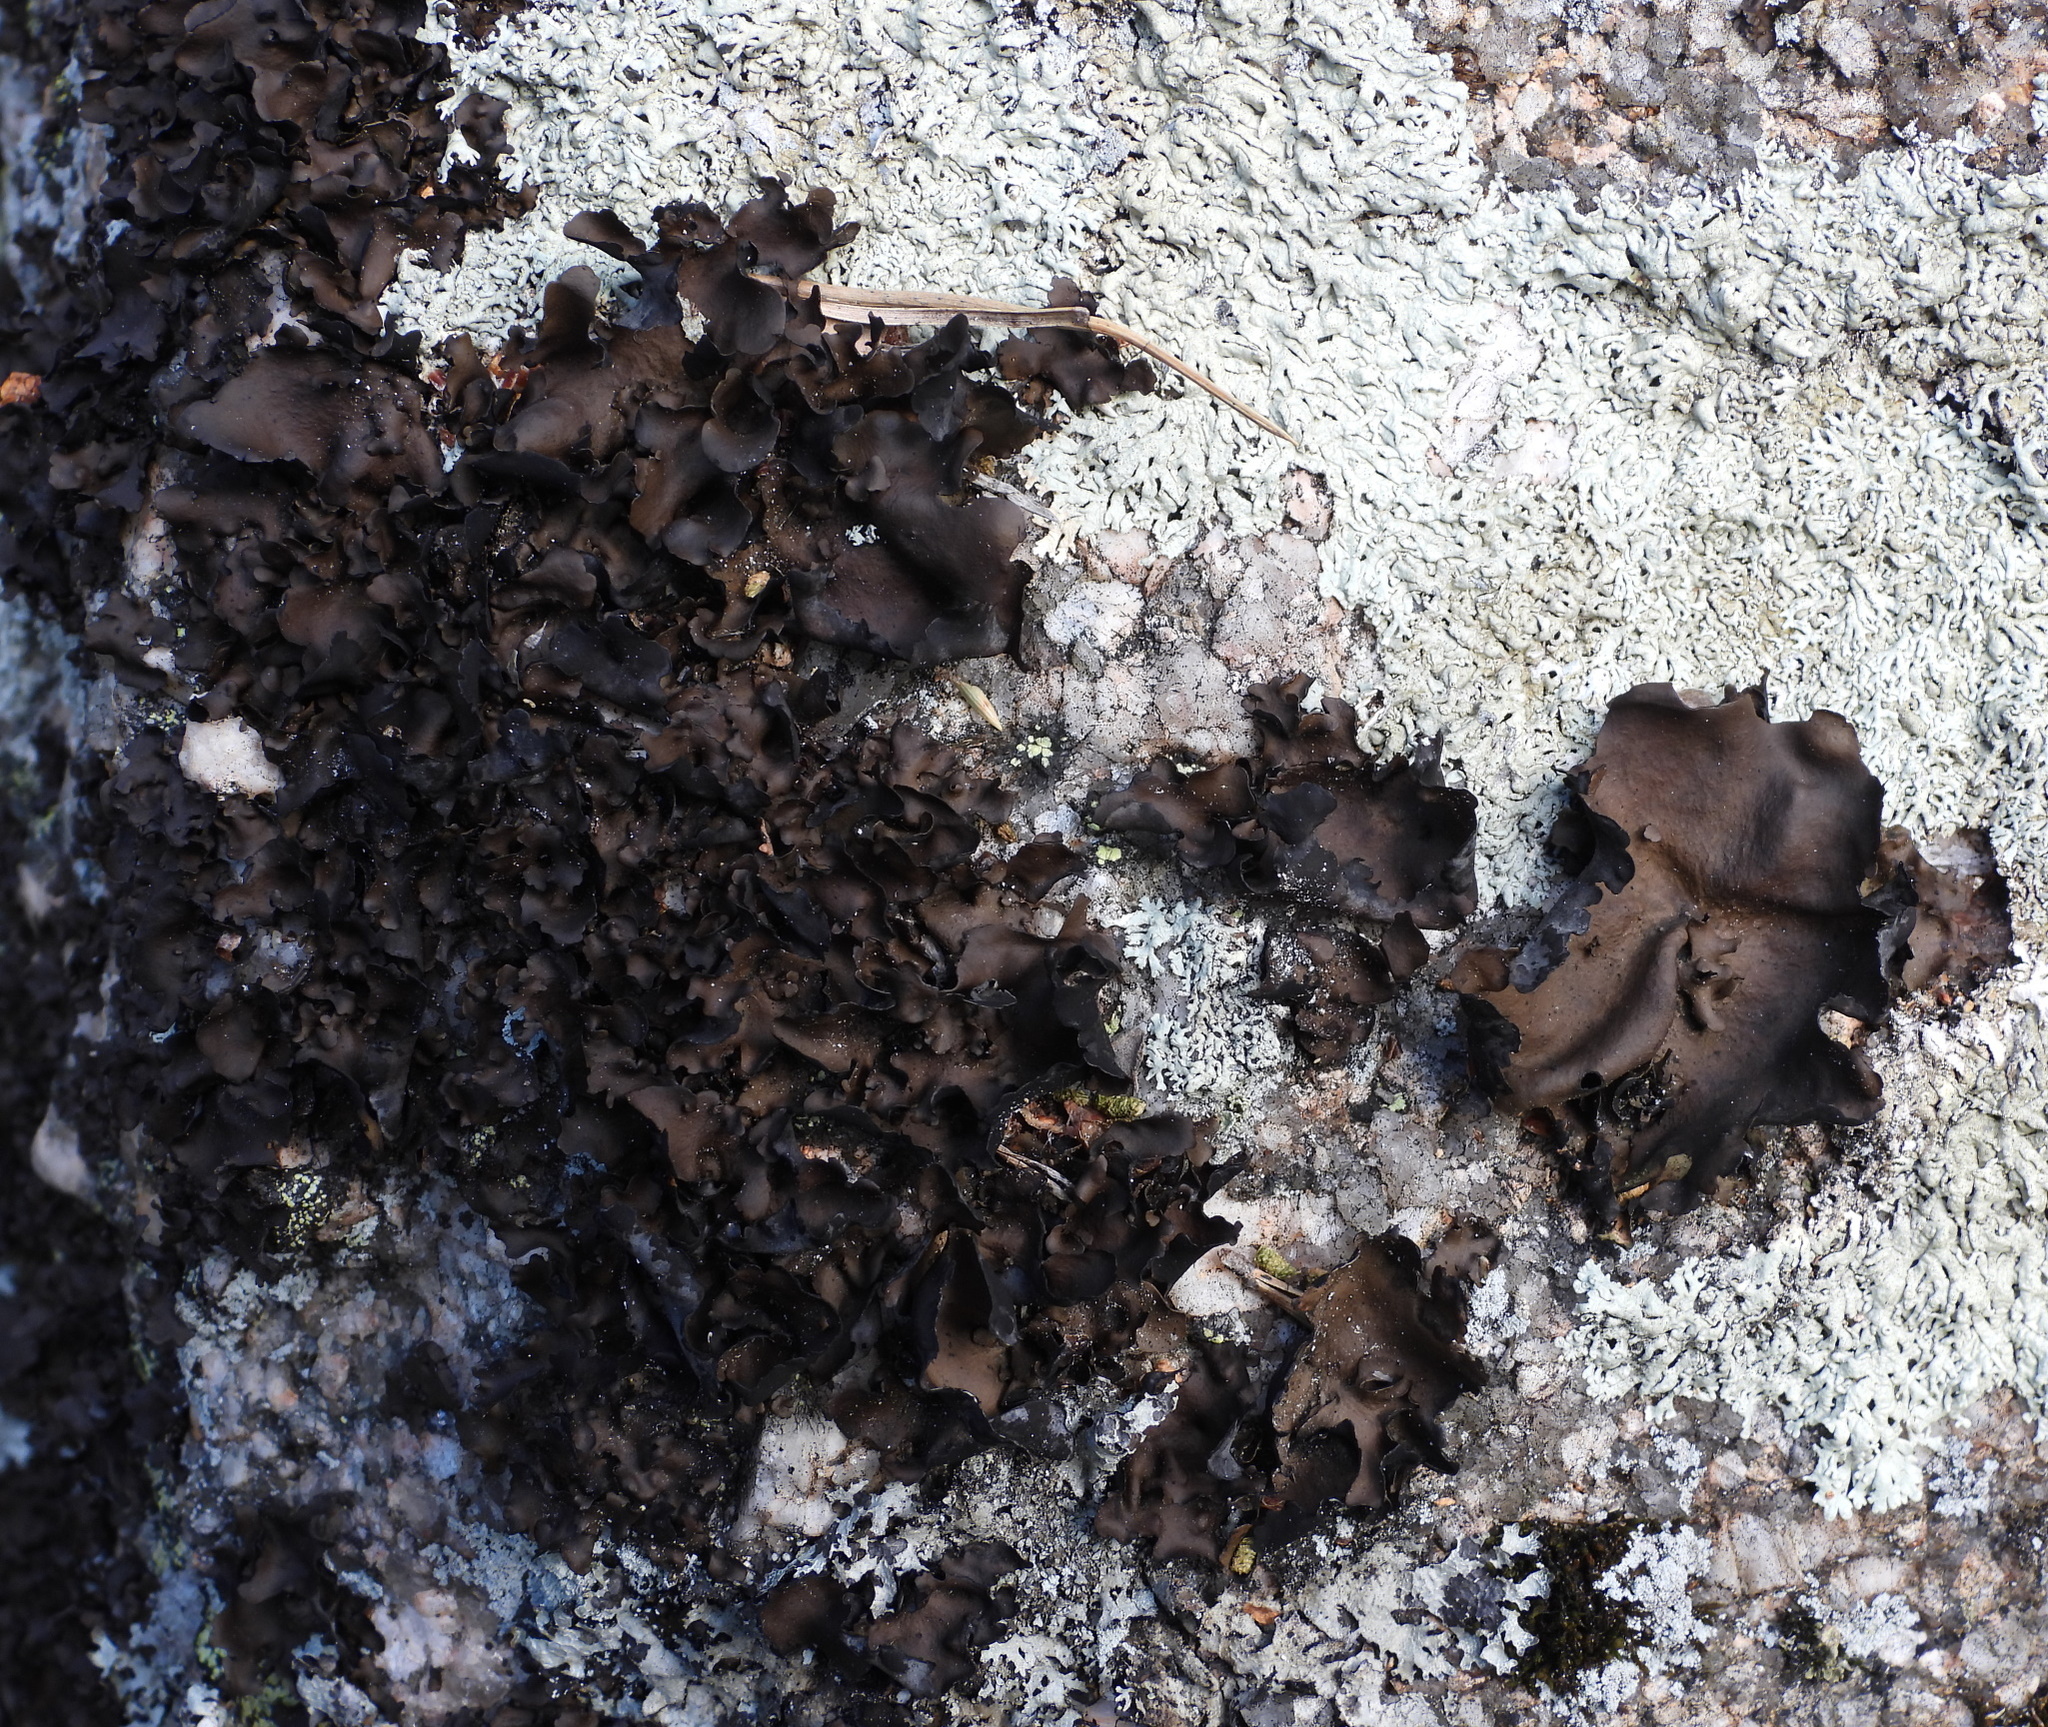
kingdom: Fungi
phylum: Ascomycota
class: Lecanoromycetes
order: Umbilicariales
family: Umbilicariaceae
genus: Umbilicaria
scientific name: Umbilicaria polyphylla
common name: Petalled rocktripe lichen
